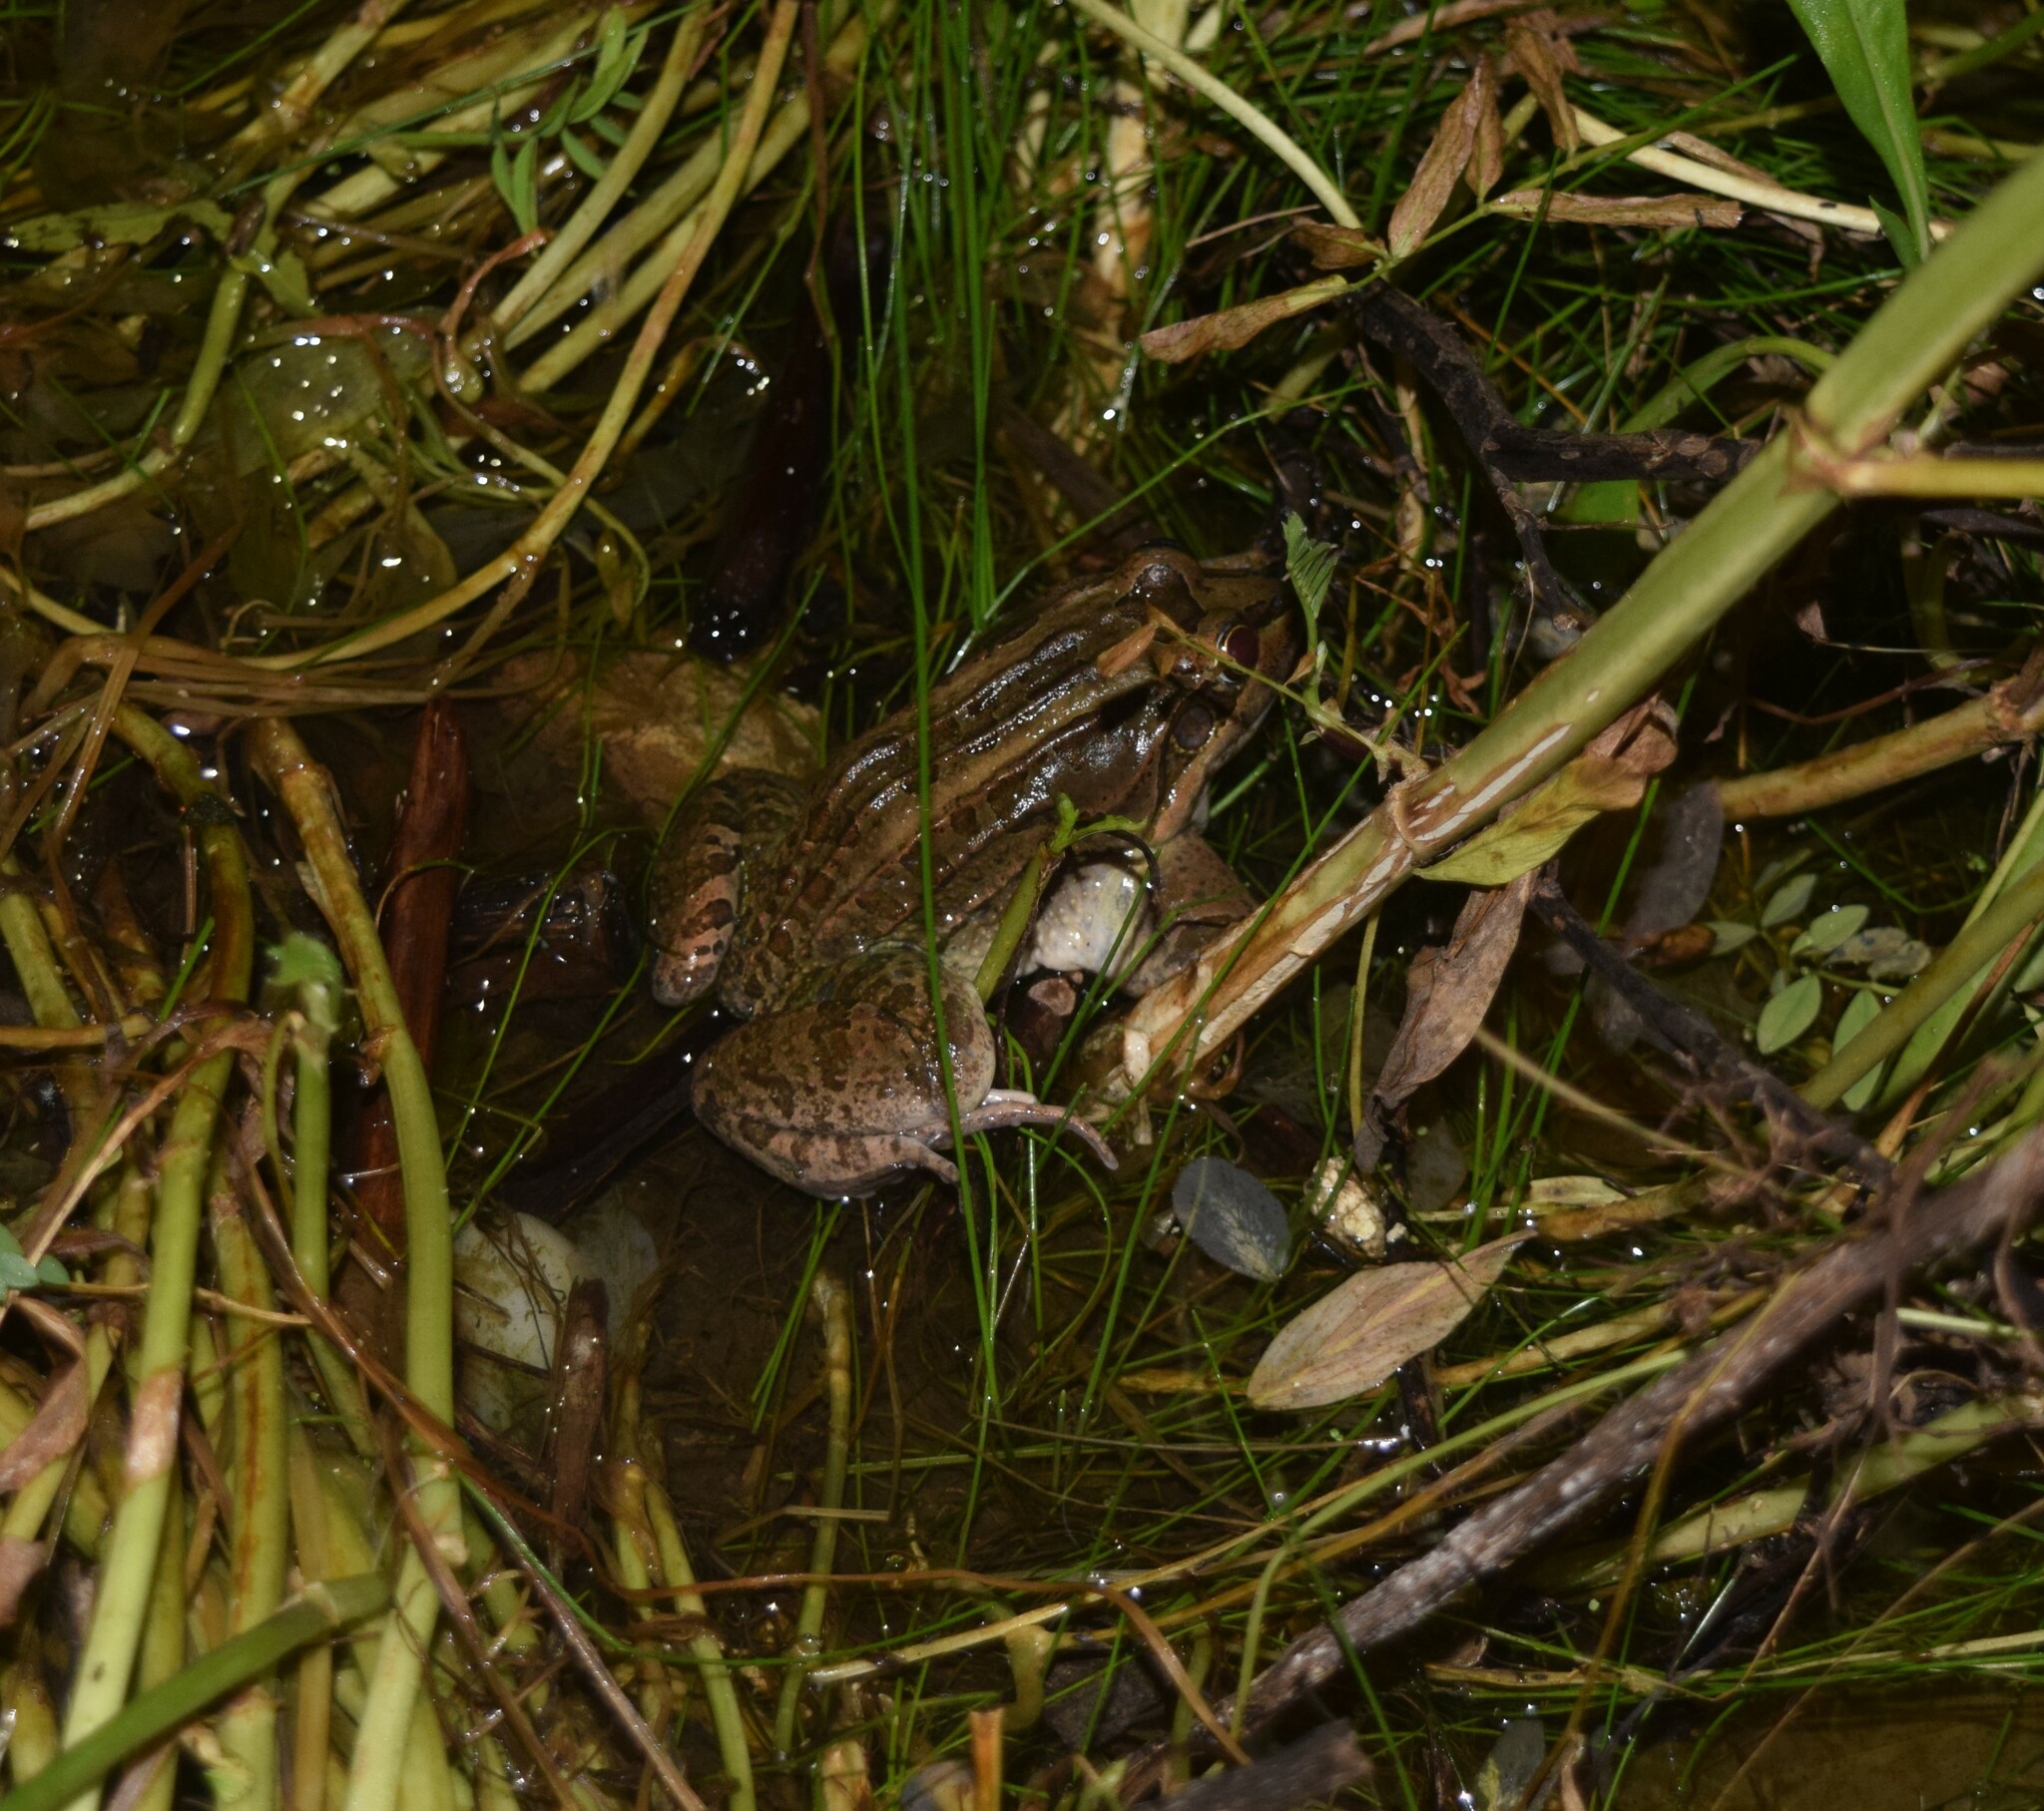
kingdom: Animalia
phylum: Chordata
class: Amphibia
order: Anura
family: Leptodactylidae
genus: Leptodactylus
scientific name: Leptodactylus luctator
